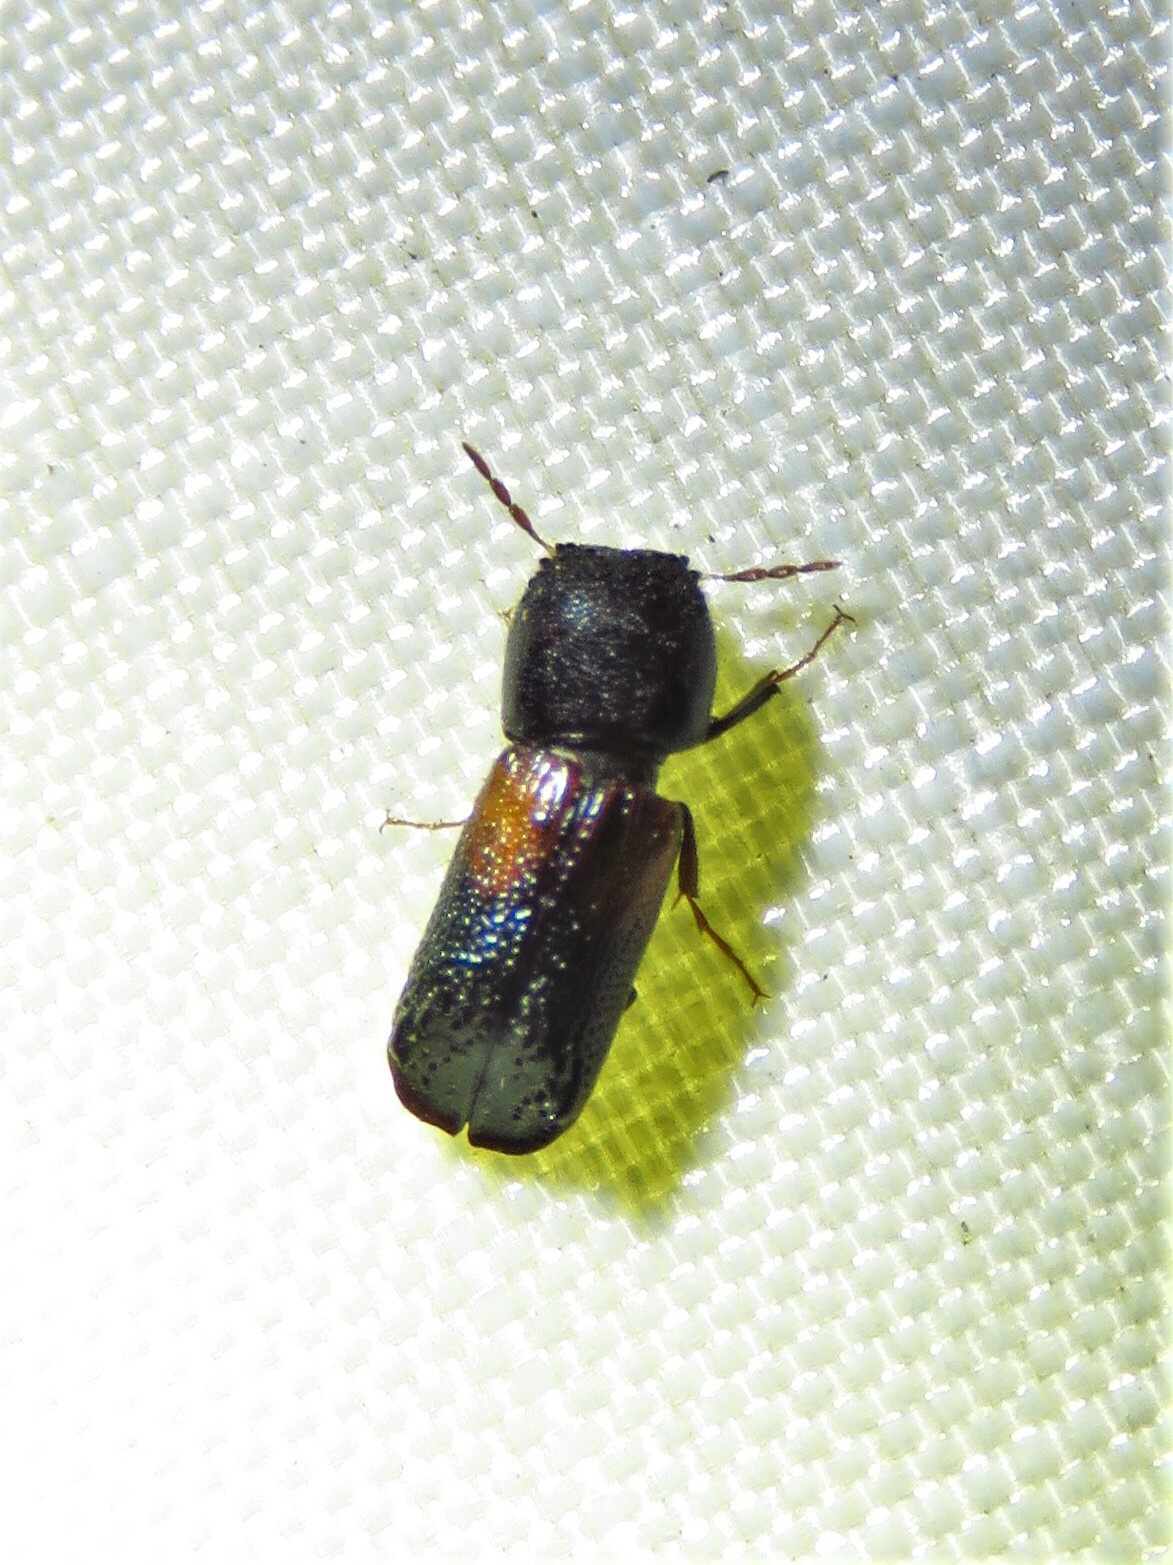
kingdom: Animalia
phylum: Arthropoda
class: Insecta
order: Coleoptera
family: Bostrichidae
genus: Xylobiops
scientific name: Xylobiops basilaris
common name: Red-shouldered bostrichid
